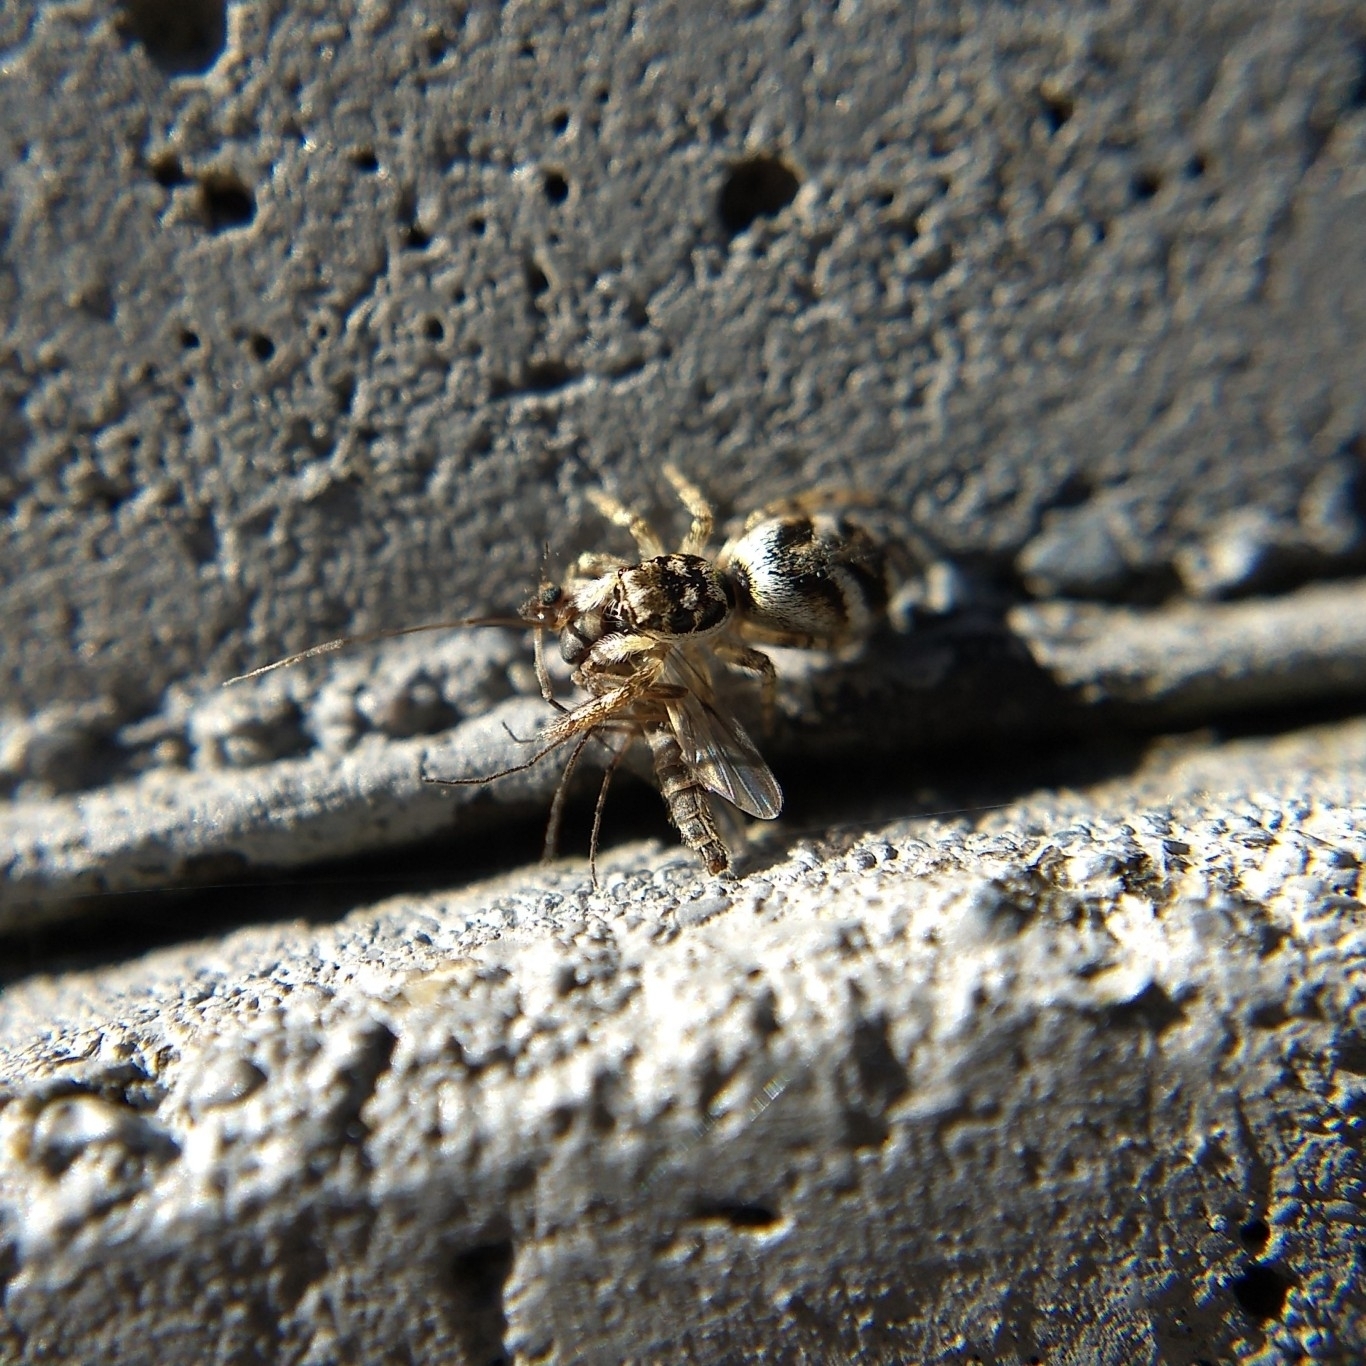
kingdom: Animalia
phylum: Arthropoda
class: Arachnida
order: Araneae
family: Salticidae
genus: Salticus
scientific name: Salticus scenicus
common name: Zebra jumper
